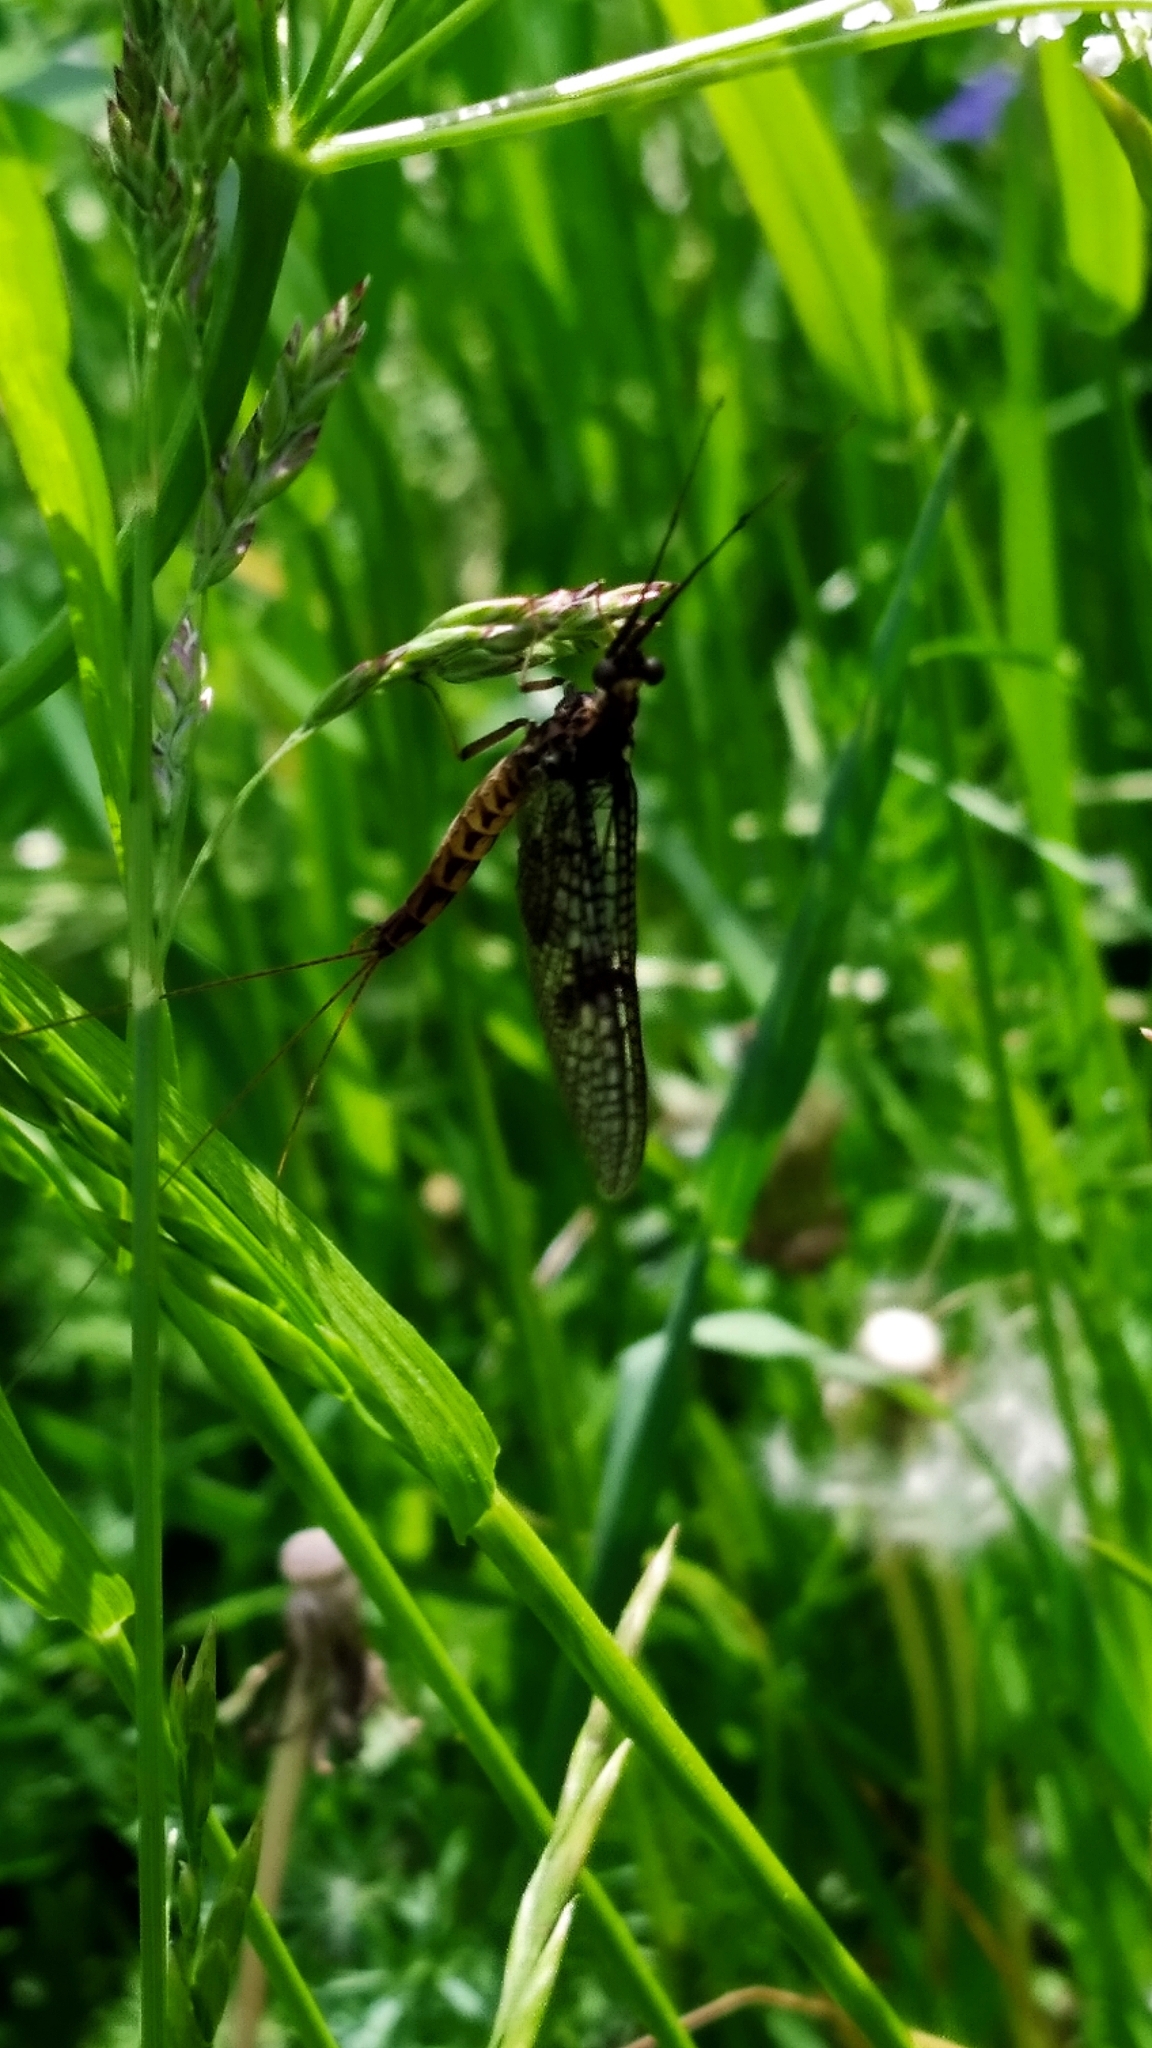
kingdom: Animalia
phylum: Arthropoda
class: Insecta
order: Ephemeroptera
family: Ephemeridae
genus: Ephemera
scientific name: Ephemera vulgata
